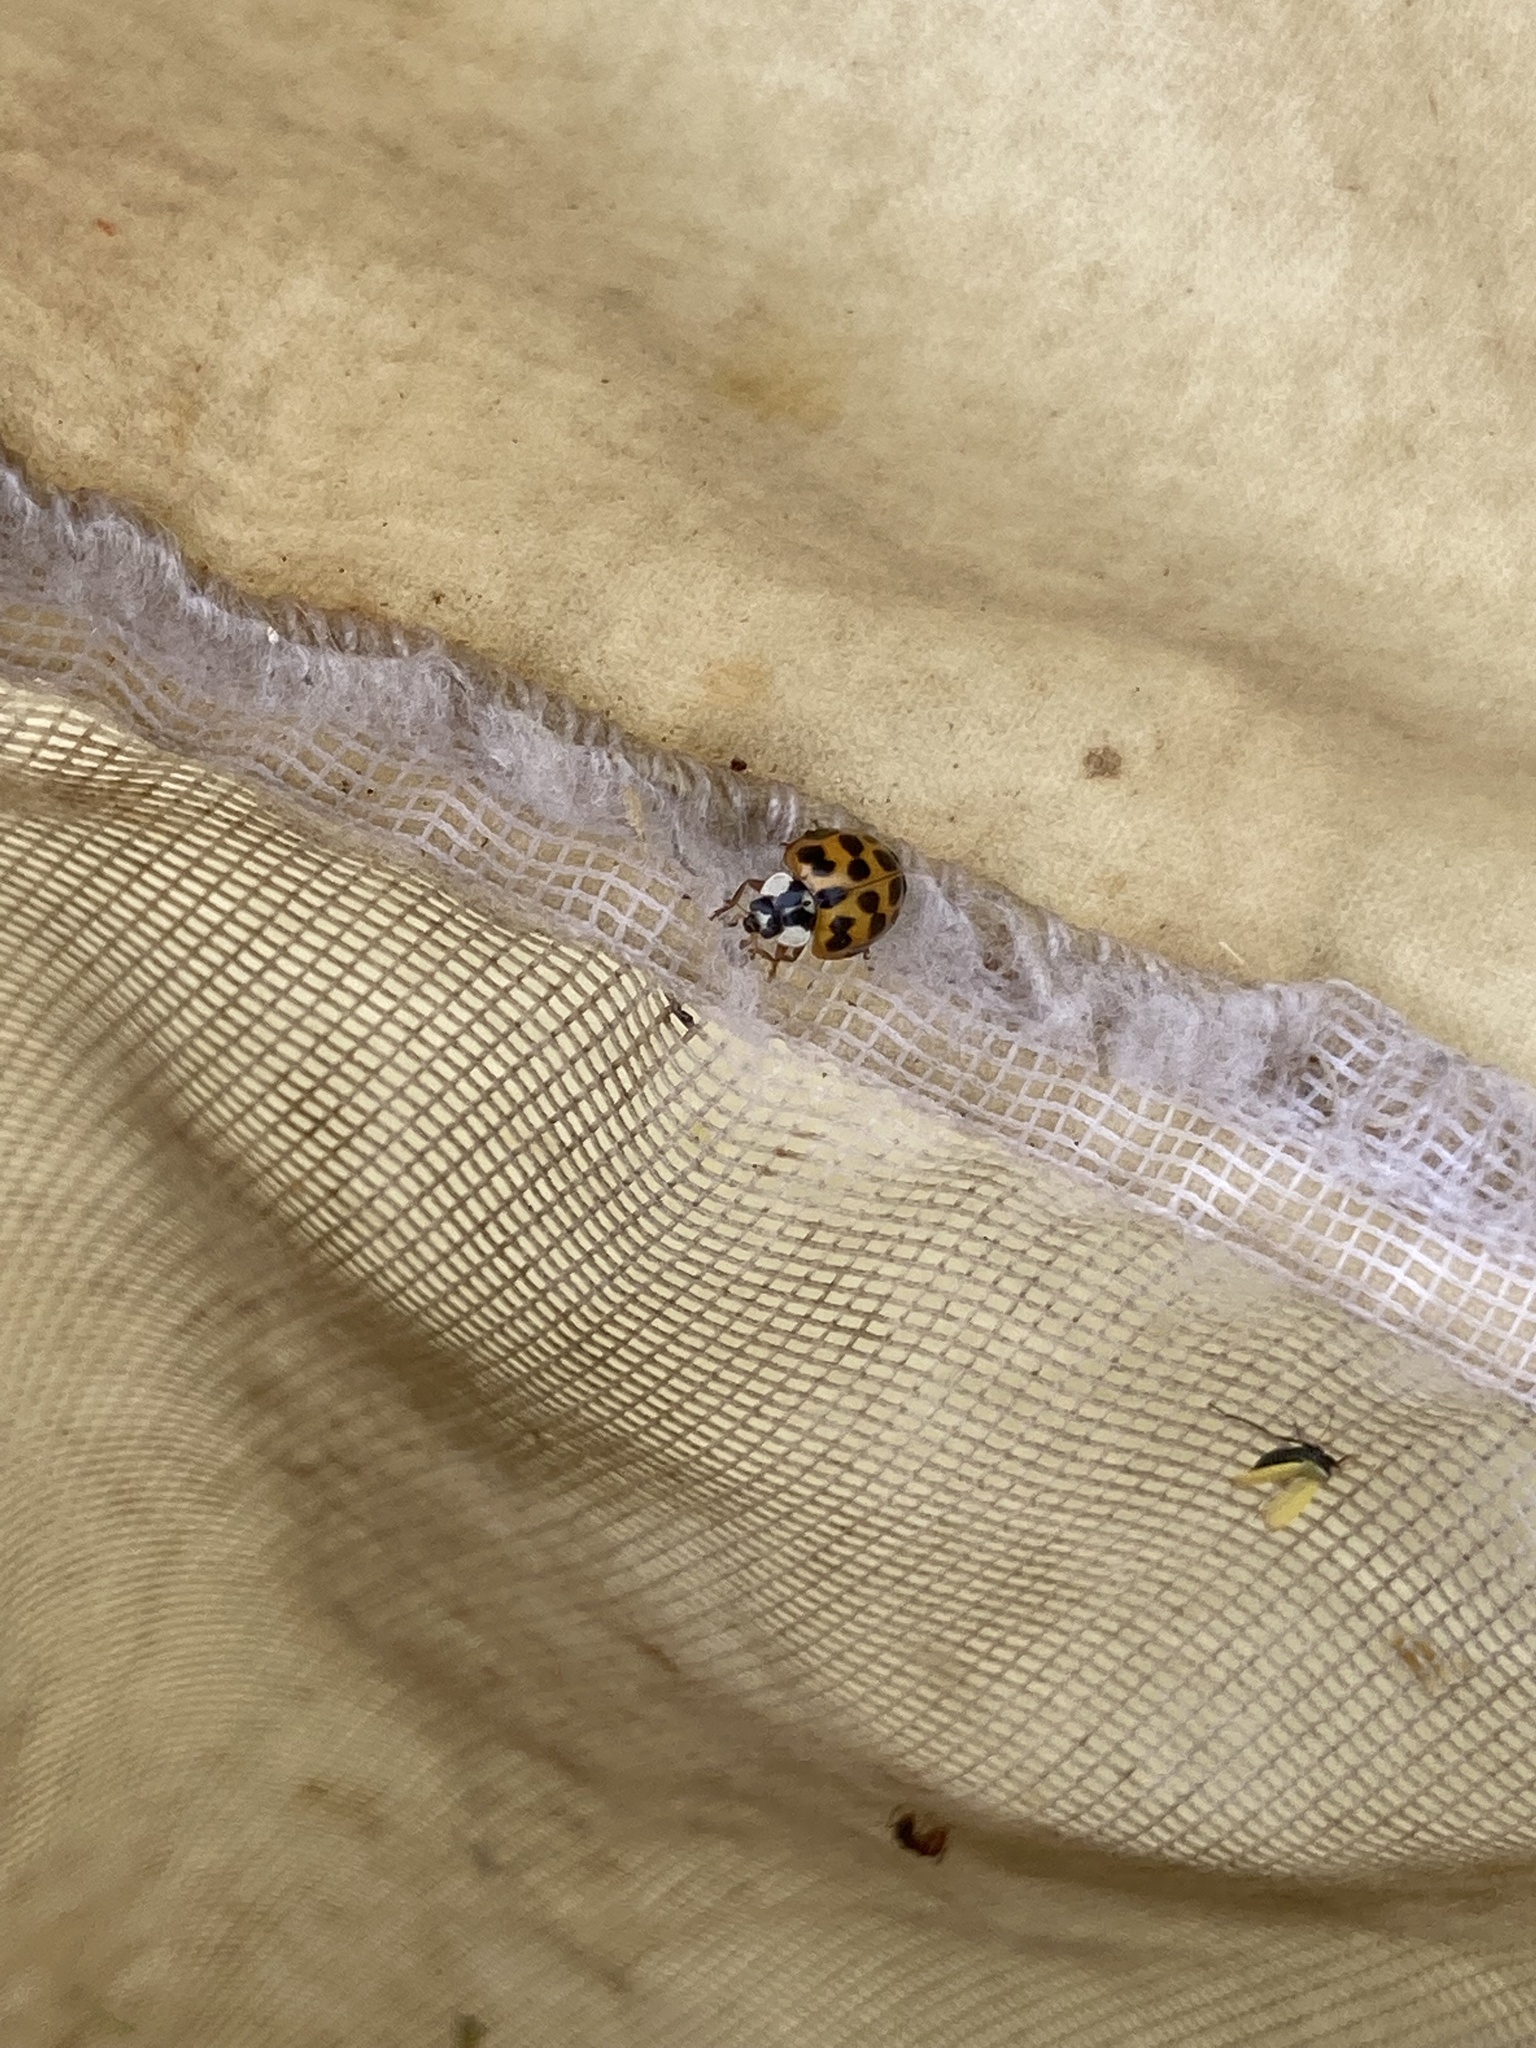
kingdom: Animalia
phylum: Arthropoda
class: Insecta
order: Coleoptera
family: Coccinellidae
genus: Harmonia
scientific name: Harmonia axyridis
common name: Harlequin ladybird
